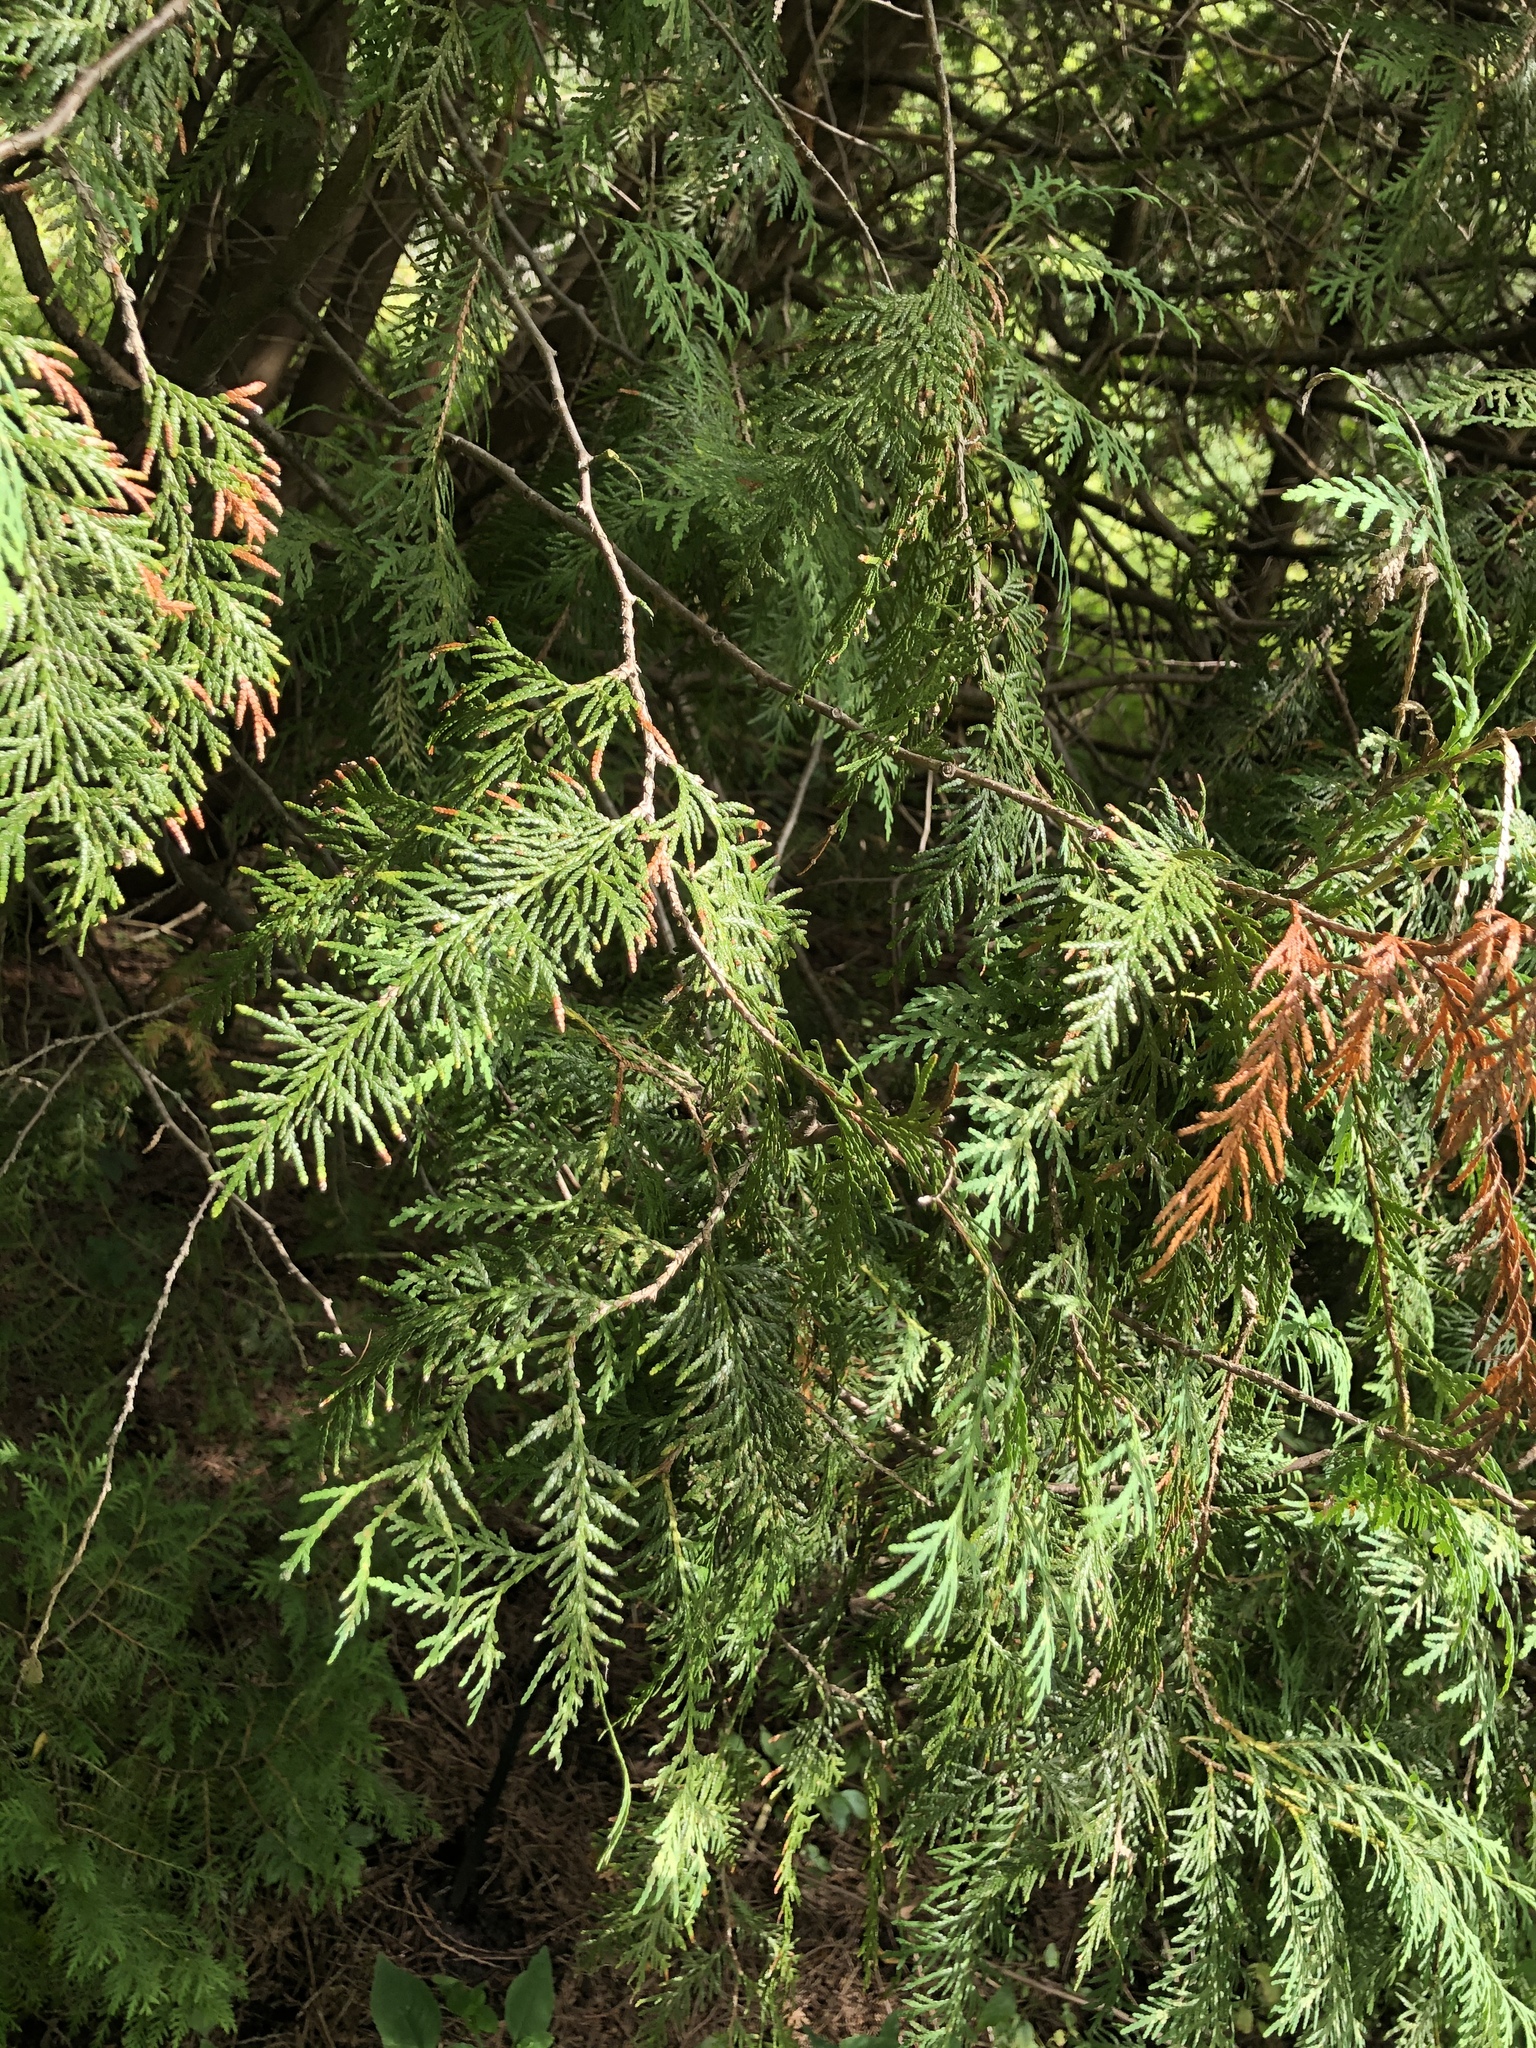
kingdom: Plantae
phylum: Tracheophyta
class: Pinopsida
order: Pinales
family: Cupressaceae
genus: Thuja
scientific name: Thuja occidentalis
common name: Northern white-cedar
